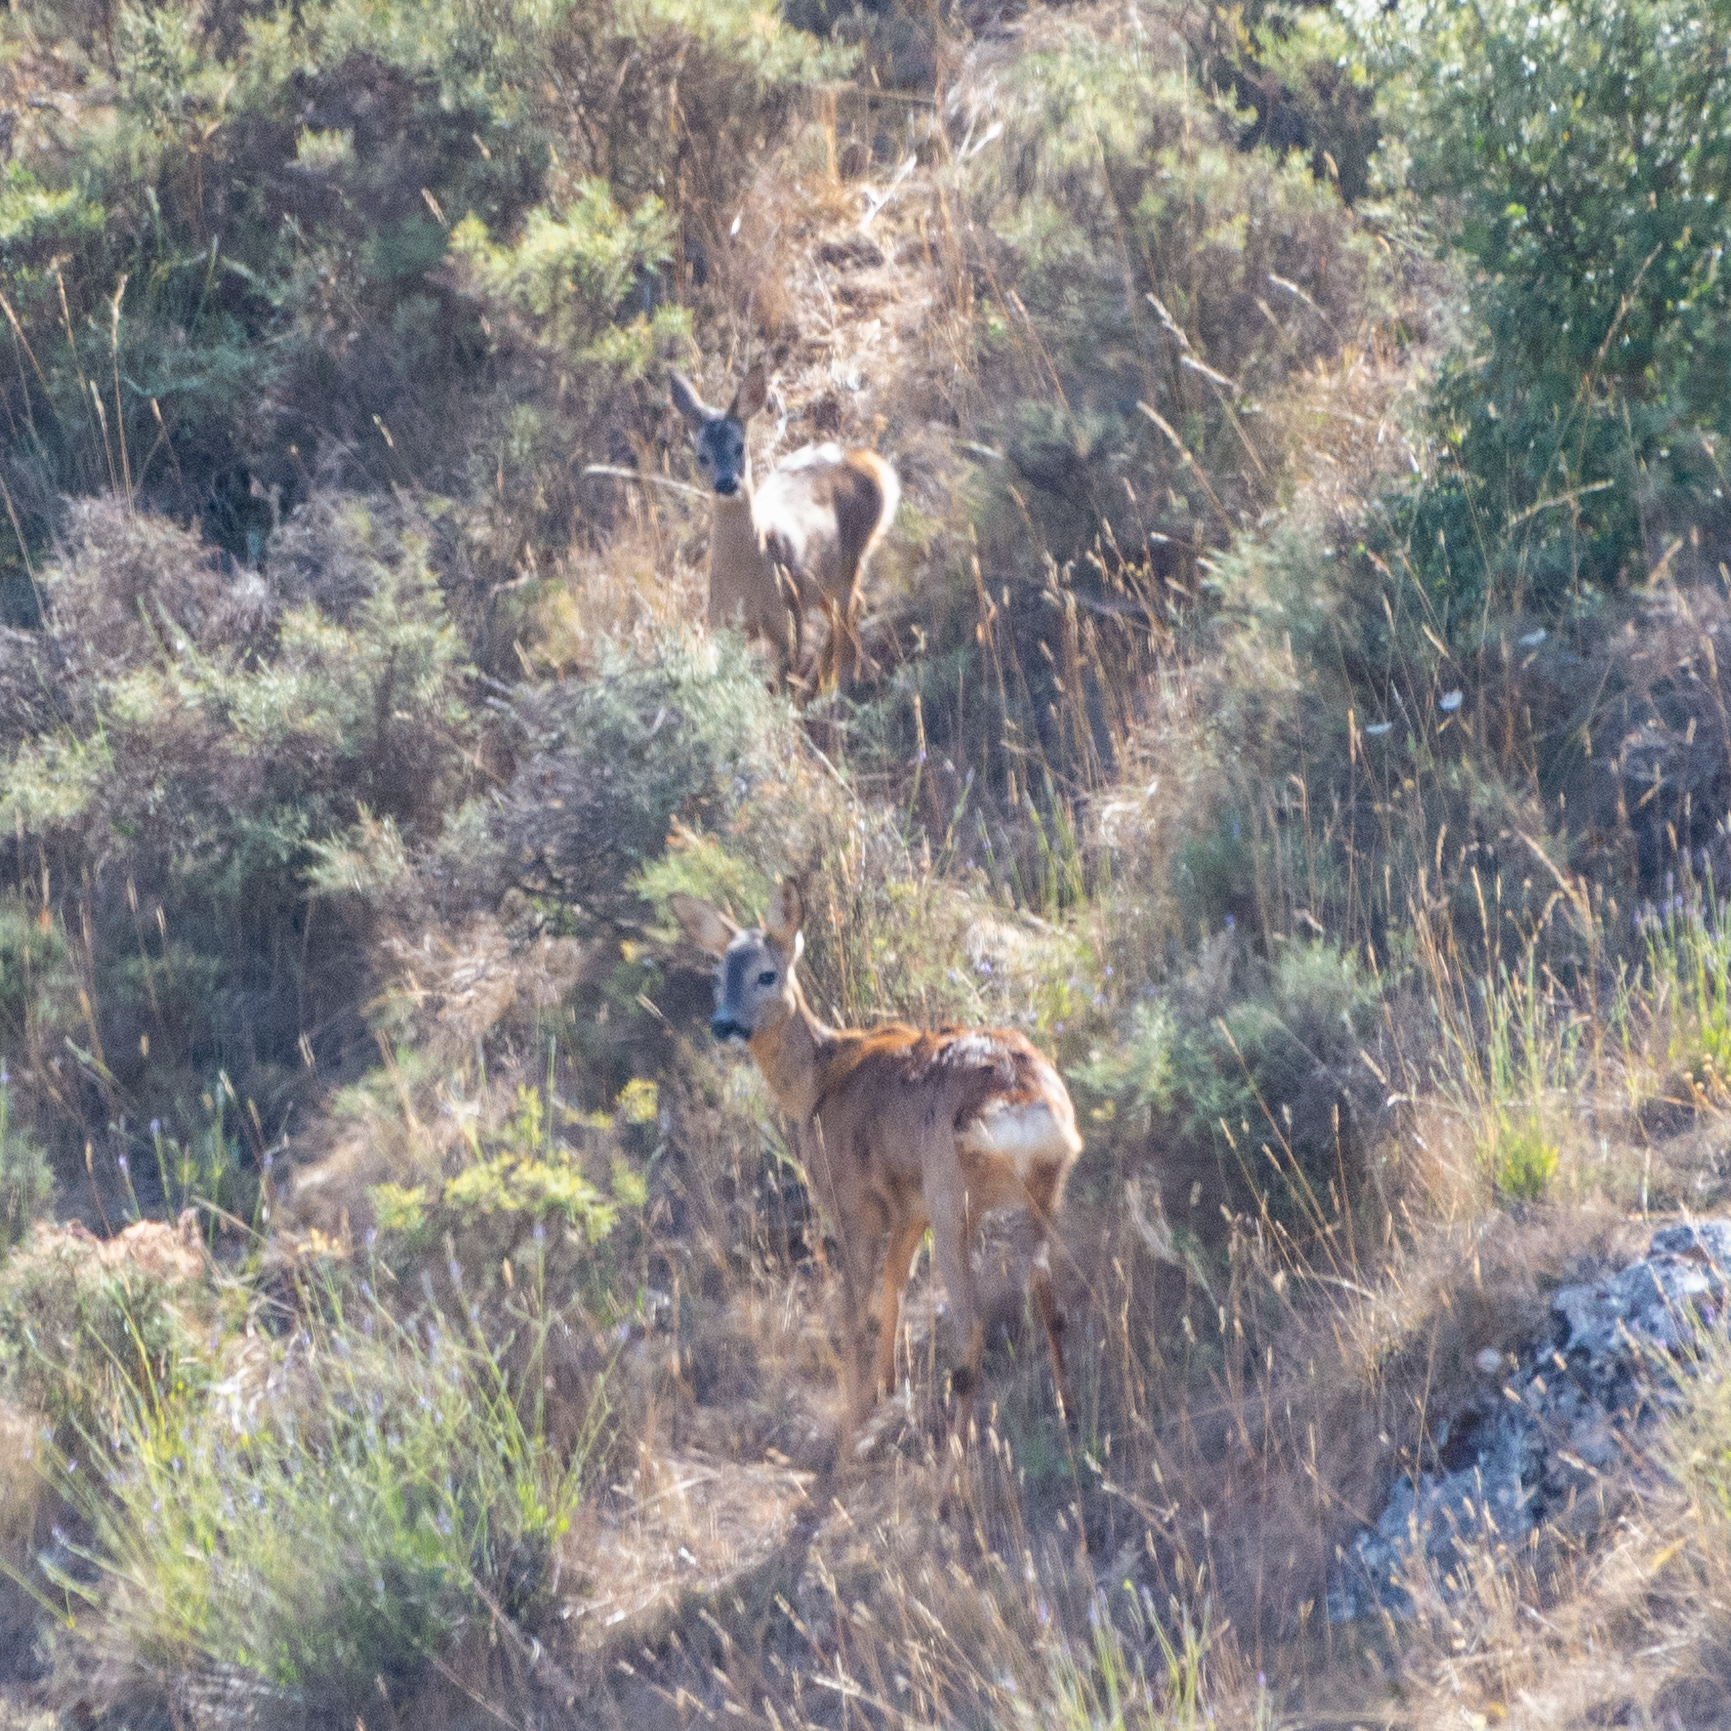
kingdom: Animalia
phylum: Chordata
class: Mammalia
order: Artiodactyla
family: Cervidae
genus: Capreolus
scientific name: Capreolus capreolus
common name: Western roe deer
